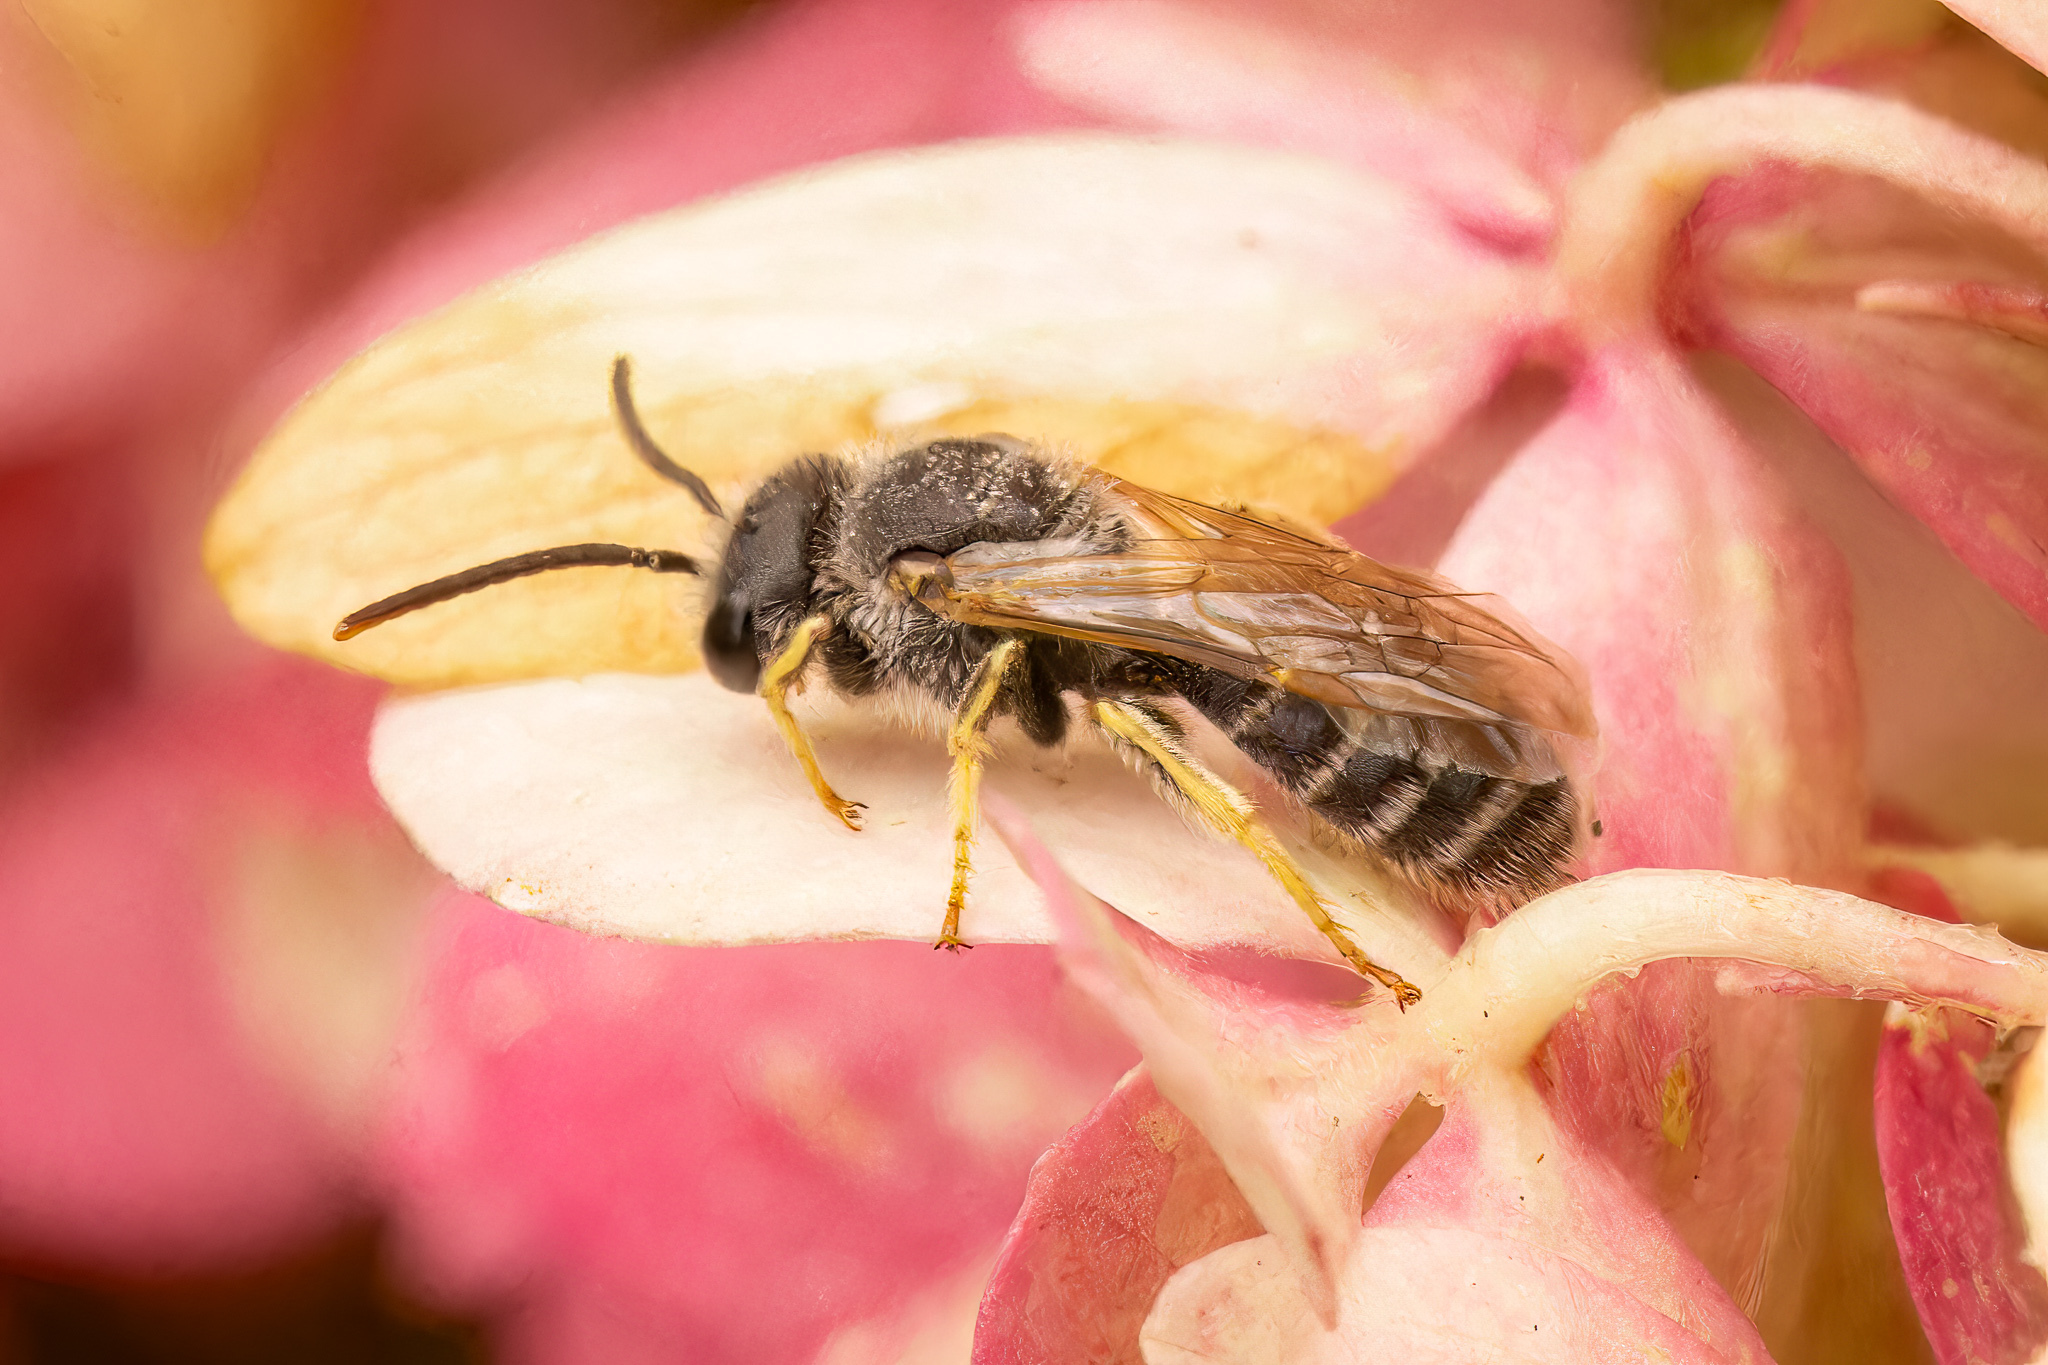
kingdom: Animalia
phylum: Arthropoda
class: Insecta
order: Hymenoptera
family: Halictidae
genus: Halictus
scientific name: Halictus ligatus
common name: Ligated furrow bee
